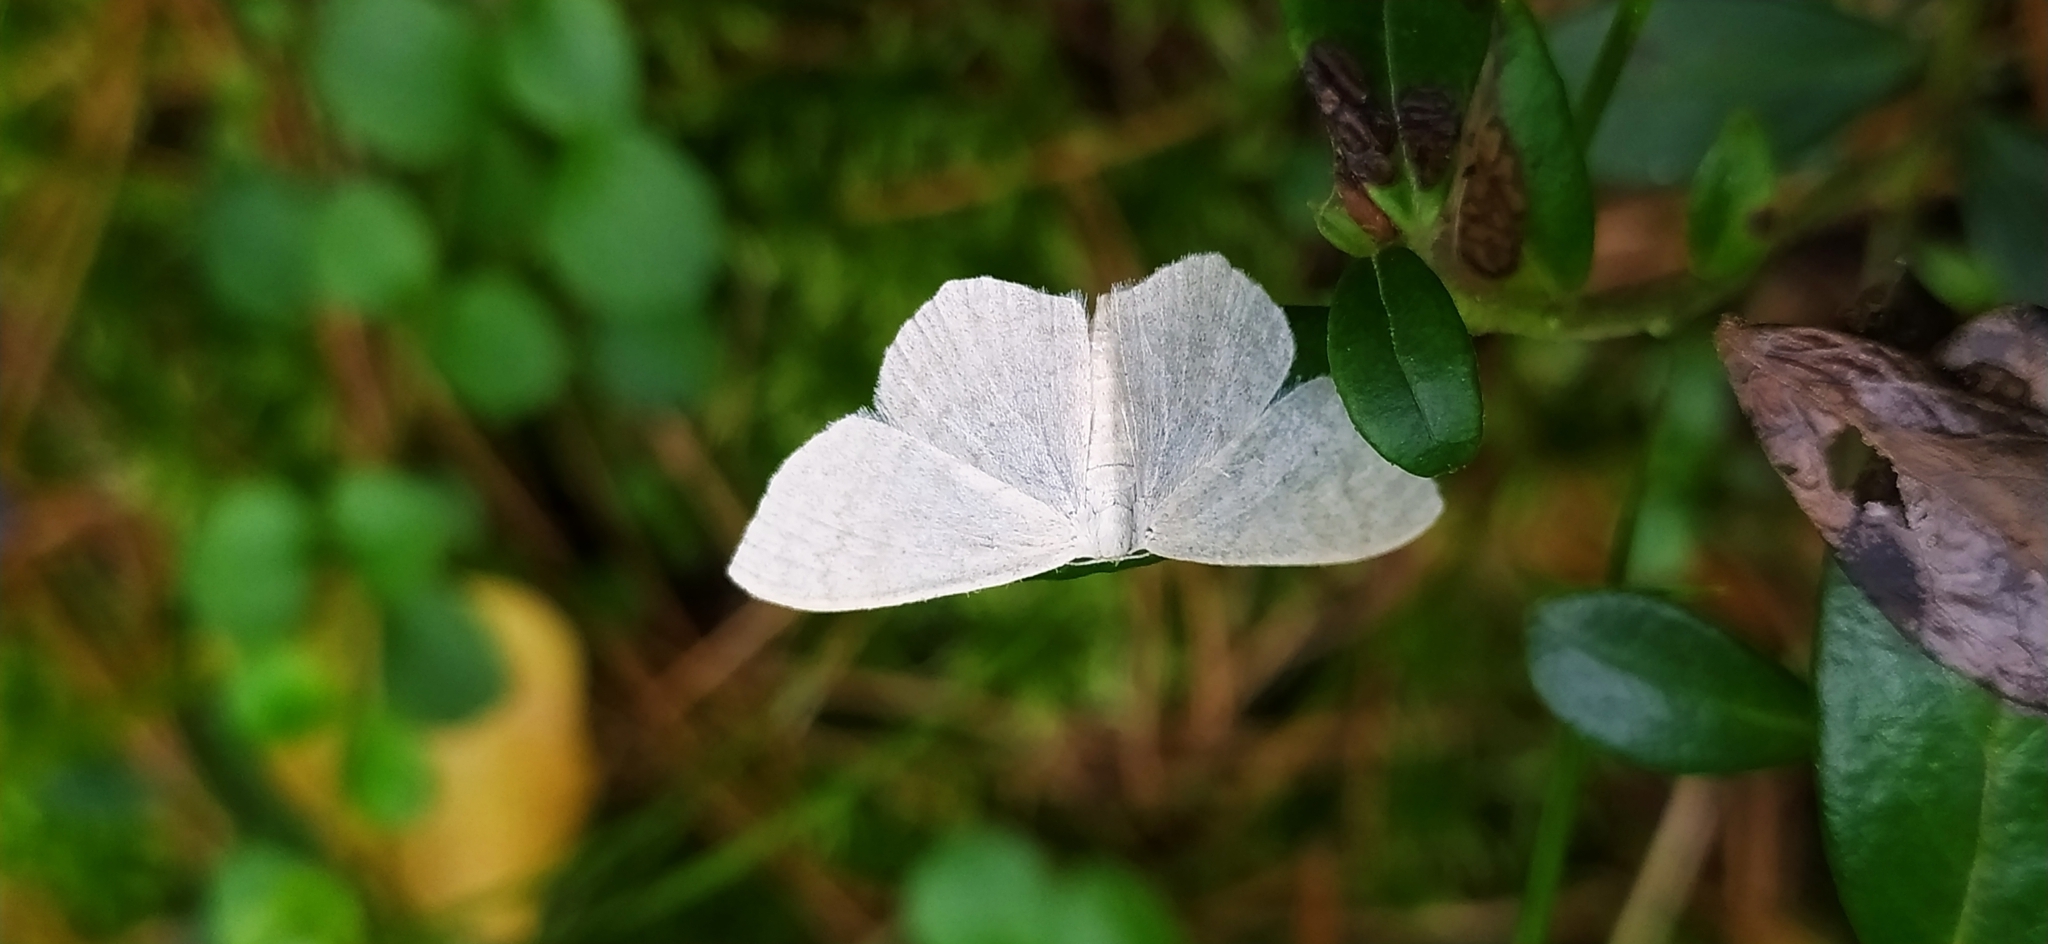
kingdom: Animalia
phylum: Arthropoda
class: Insecta
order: Lepidoptera
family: Geometridae
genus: Scopula
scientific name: Scopula floslactata
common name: Cream wave
